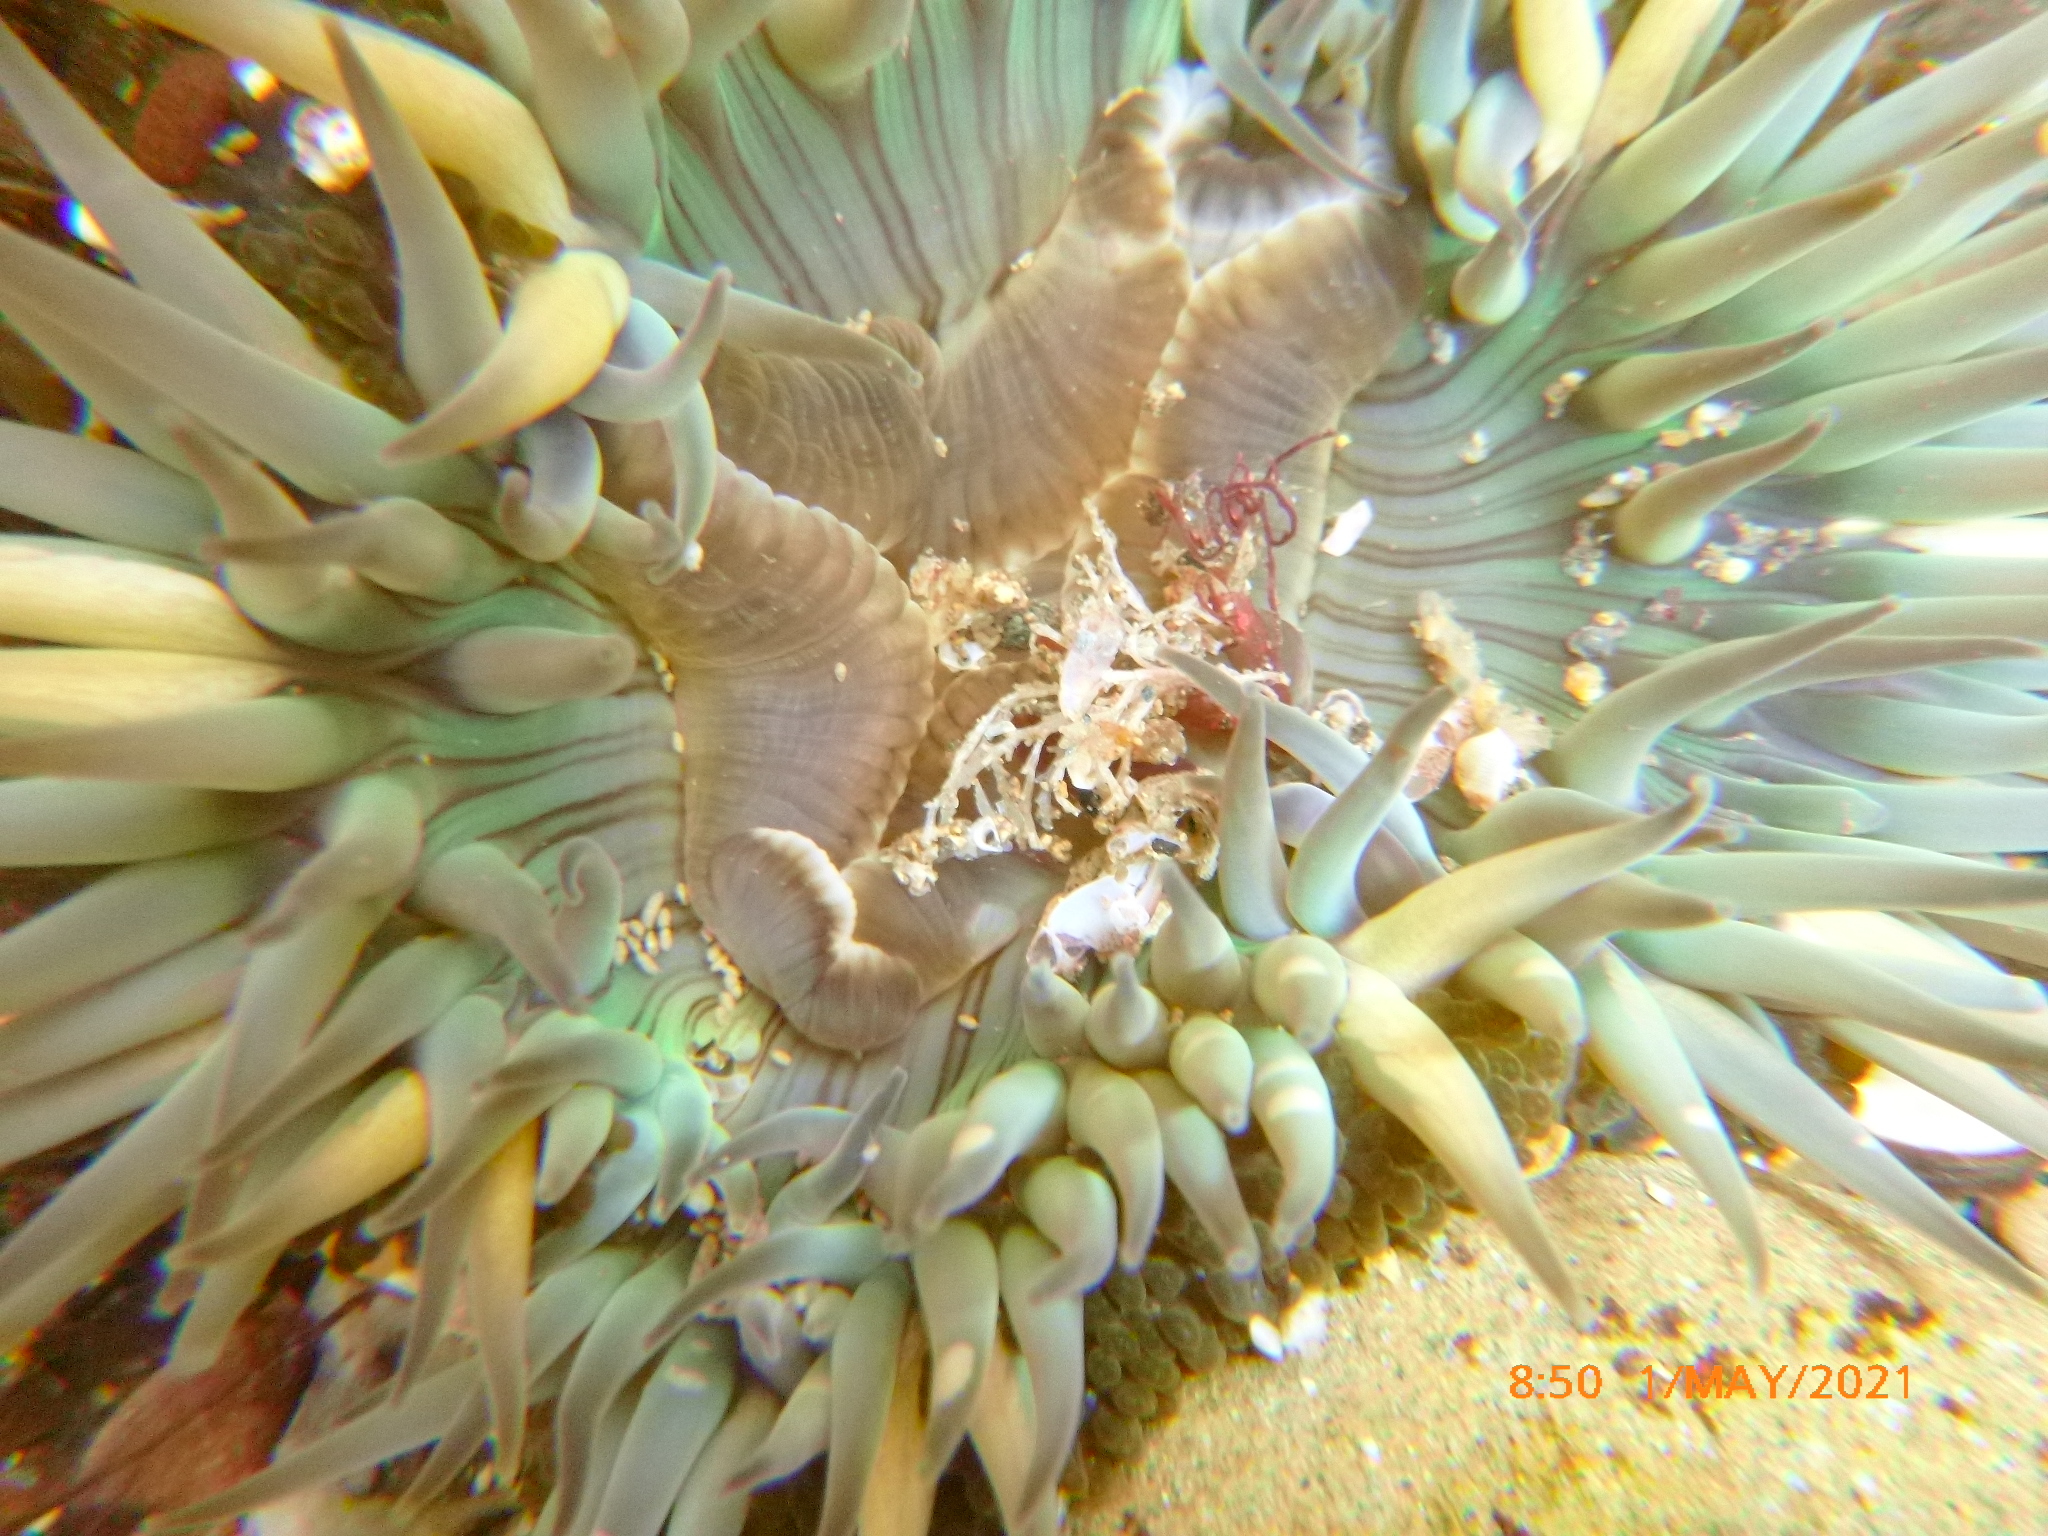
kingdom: Animalia
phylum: Cnidaria
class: Anthozoa
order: Actiniaria
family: Actiniidae
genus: Anthopleura
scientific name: Anthopleura sola
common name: Sun anemone
